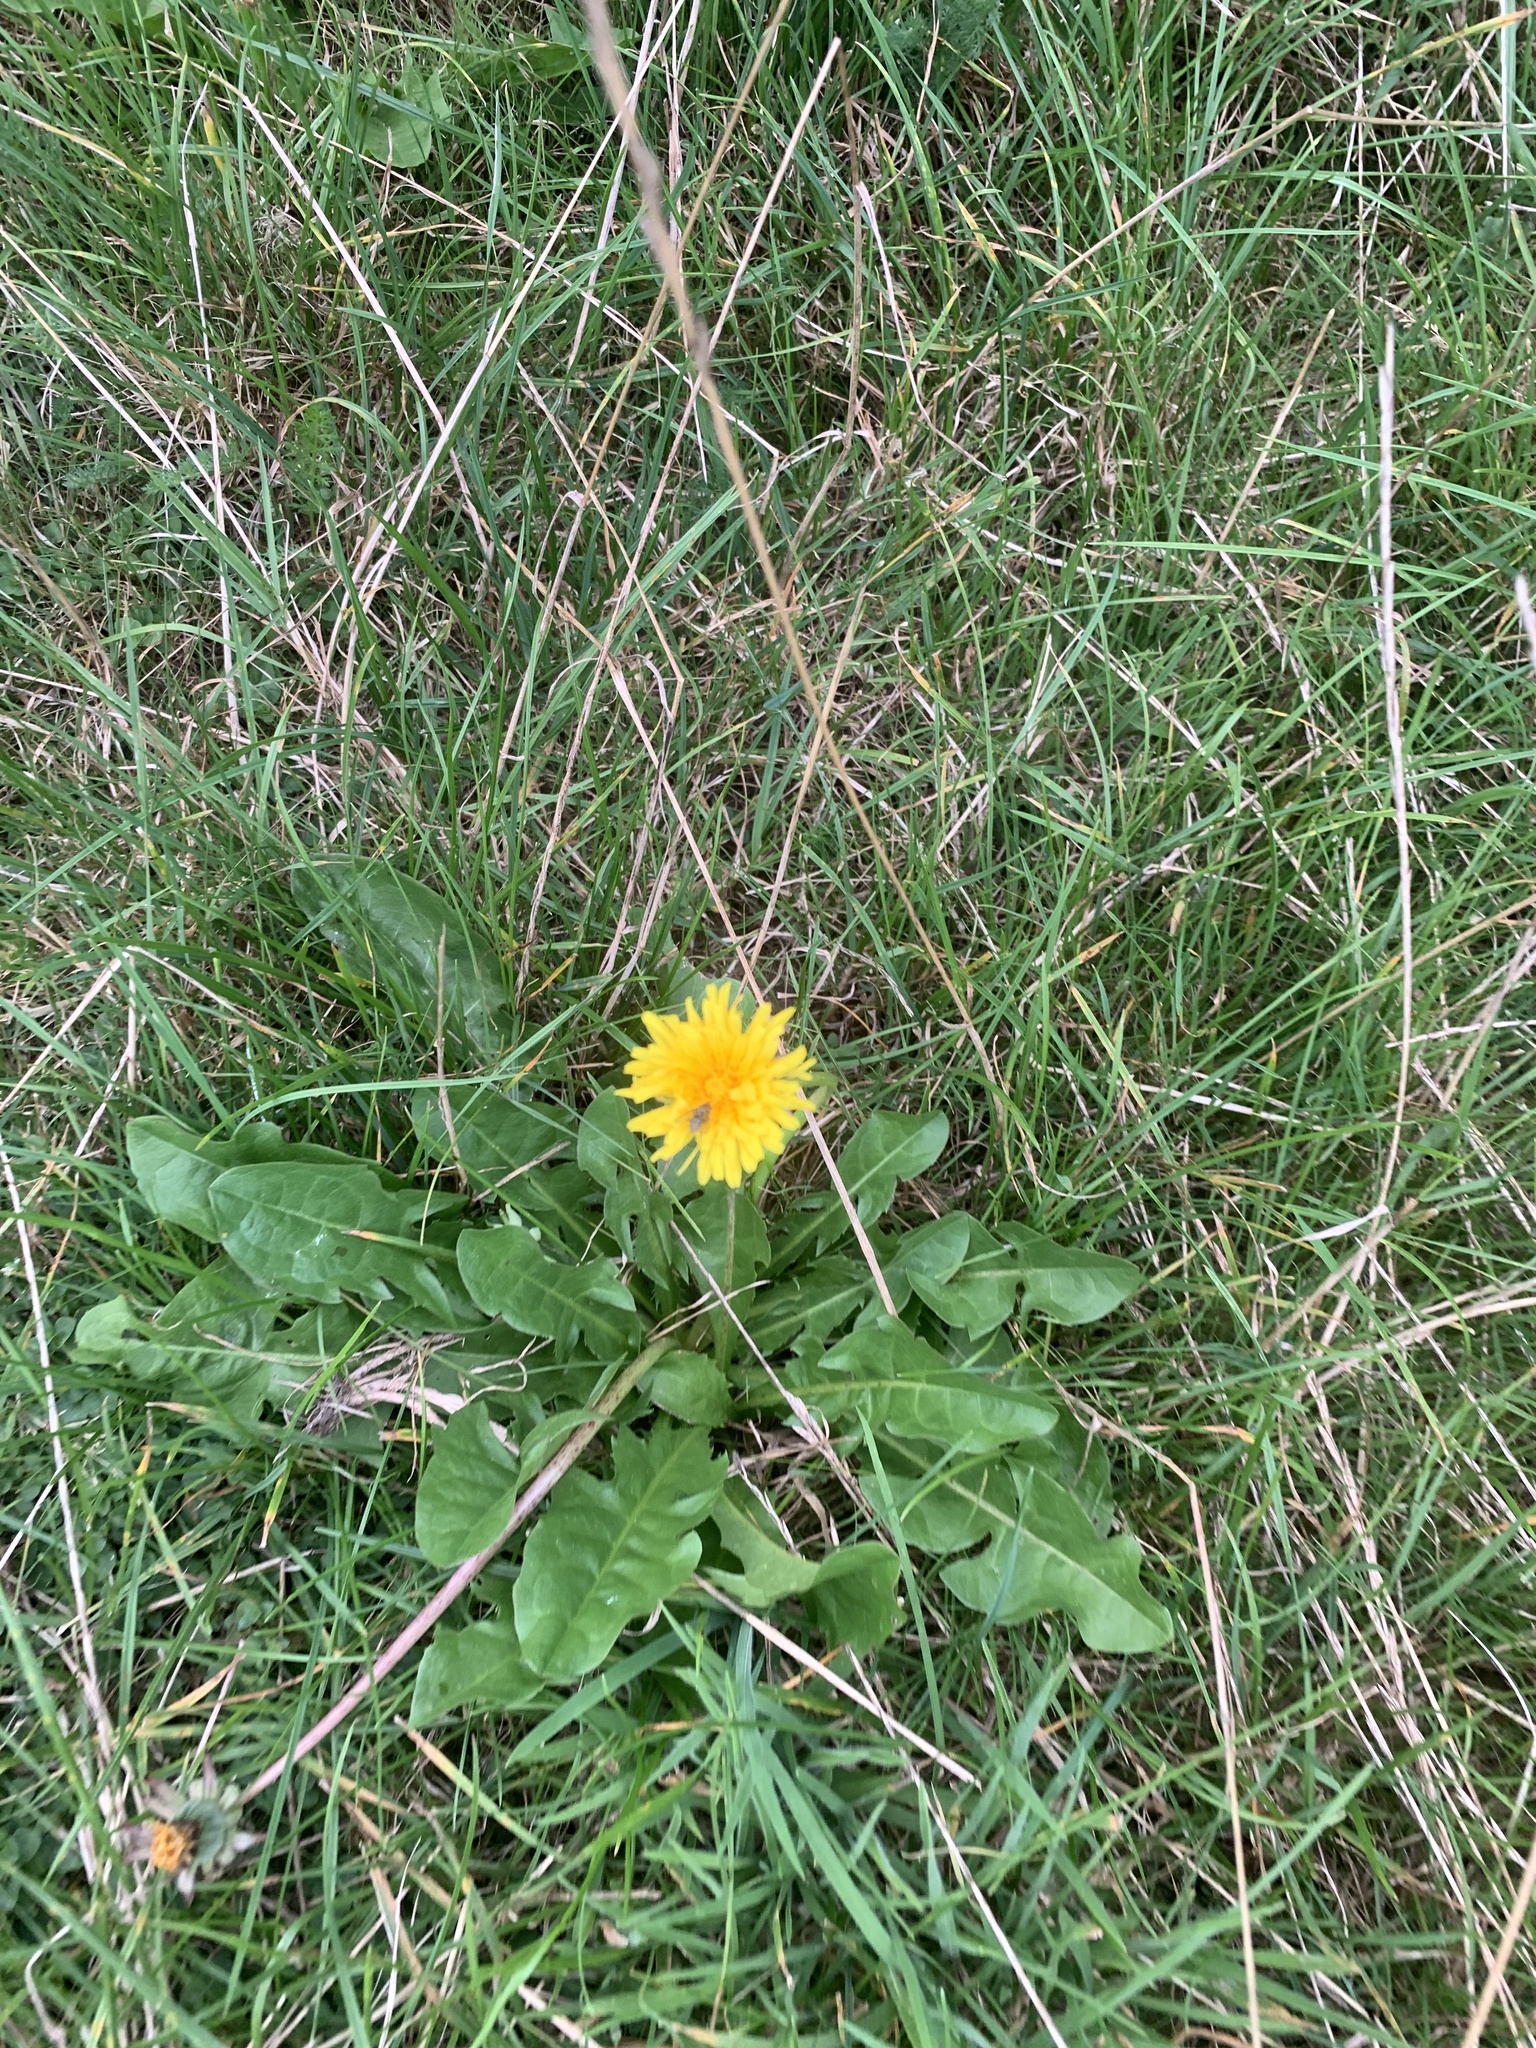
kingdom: Plantae
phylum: Tracheophyta
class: Magnoliopsida
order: Asterales
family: Asteraceae
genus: Taraxacum
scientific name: Taraxacum officinale
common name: Common dandelion
